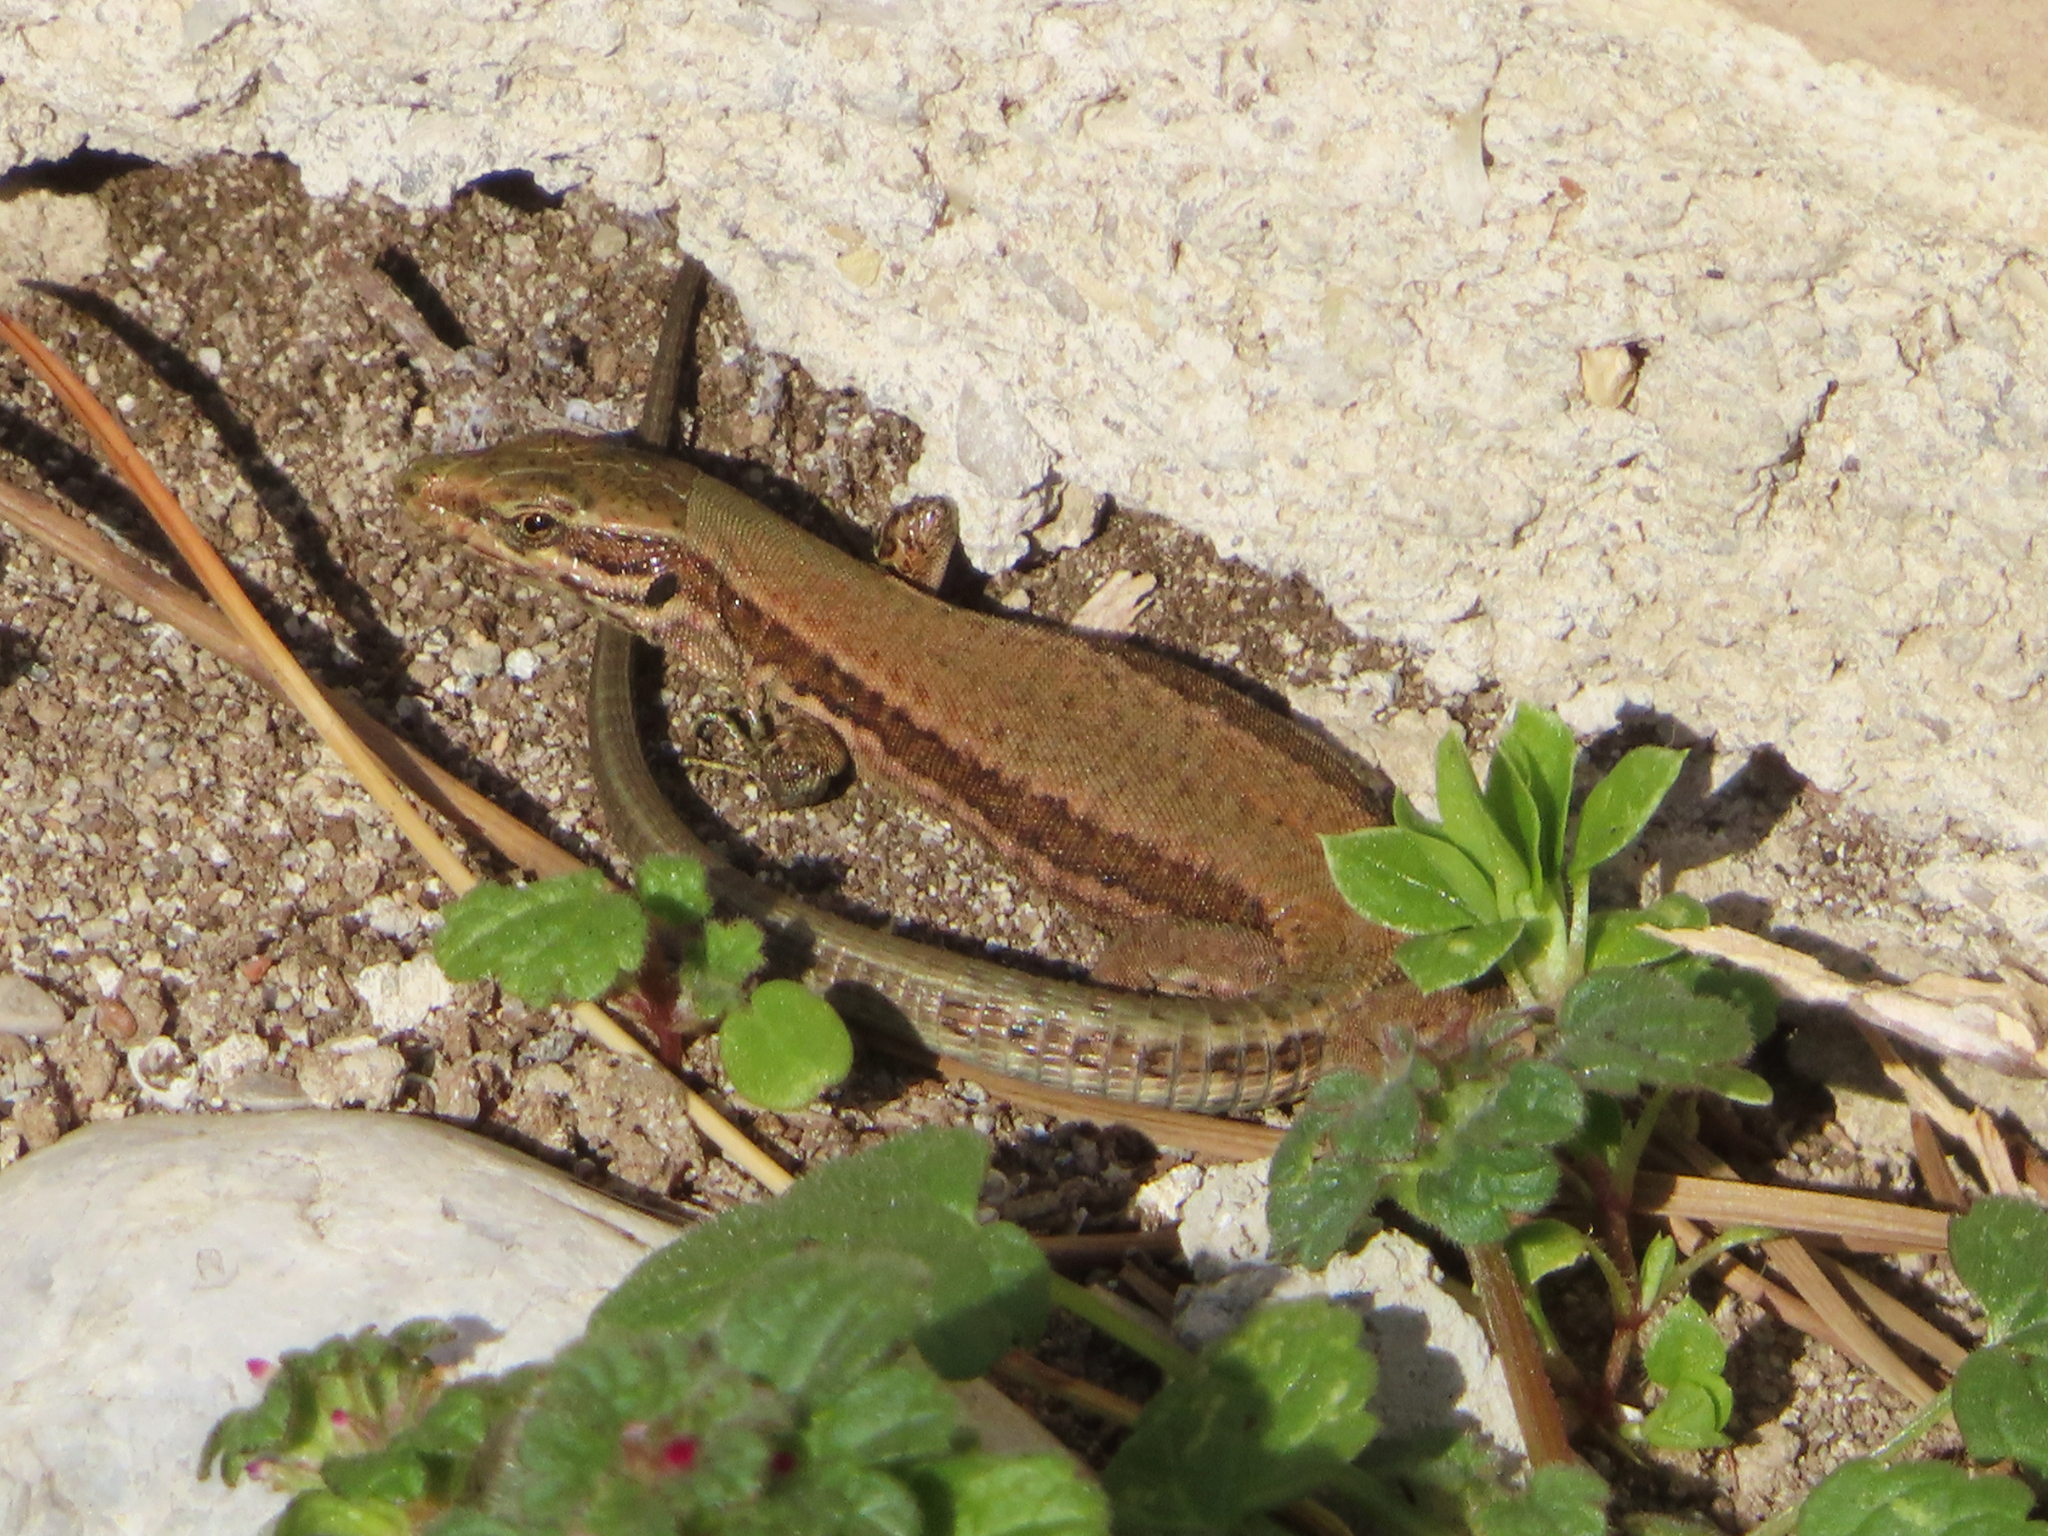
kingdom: Animalia
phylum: Chordata
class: Squamata
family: Lacertidae
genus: Podarcis
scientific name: Podarcis muralis
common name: Common wall lizard
